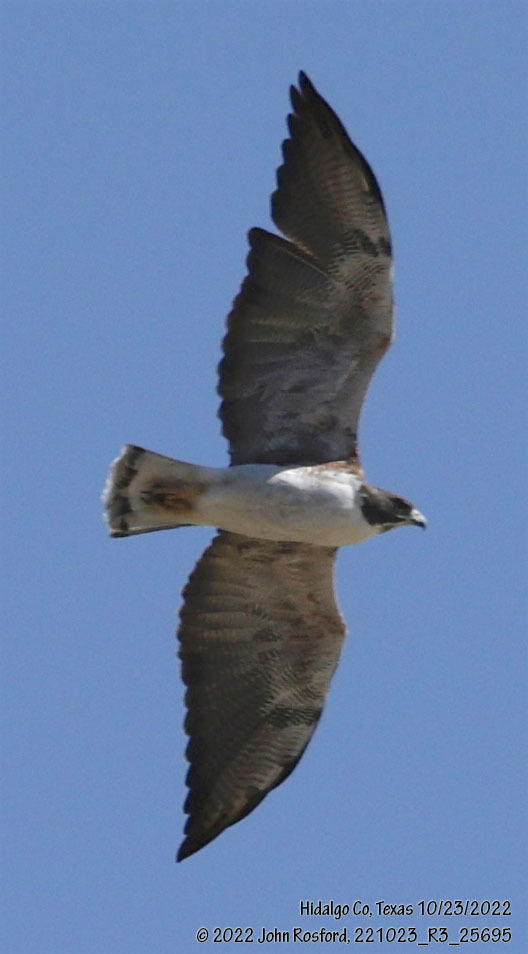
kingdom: Animalia
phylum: Chordata
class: Aves
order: Accipitriformes
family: Accipitridae
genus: Buteo
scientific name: Buteo albicaudatus
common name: White-tailed hawk
